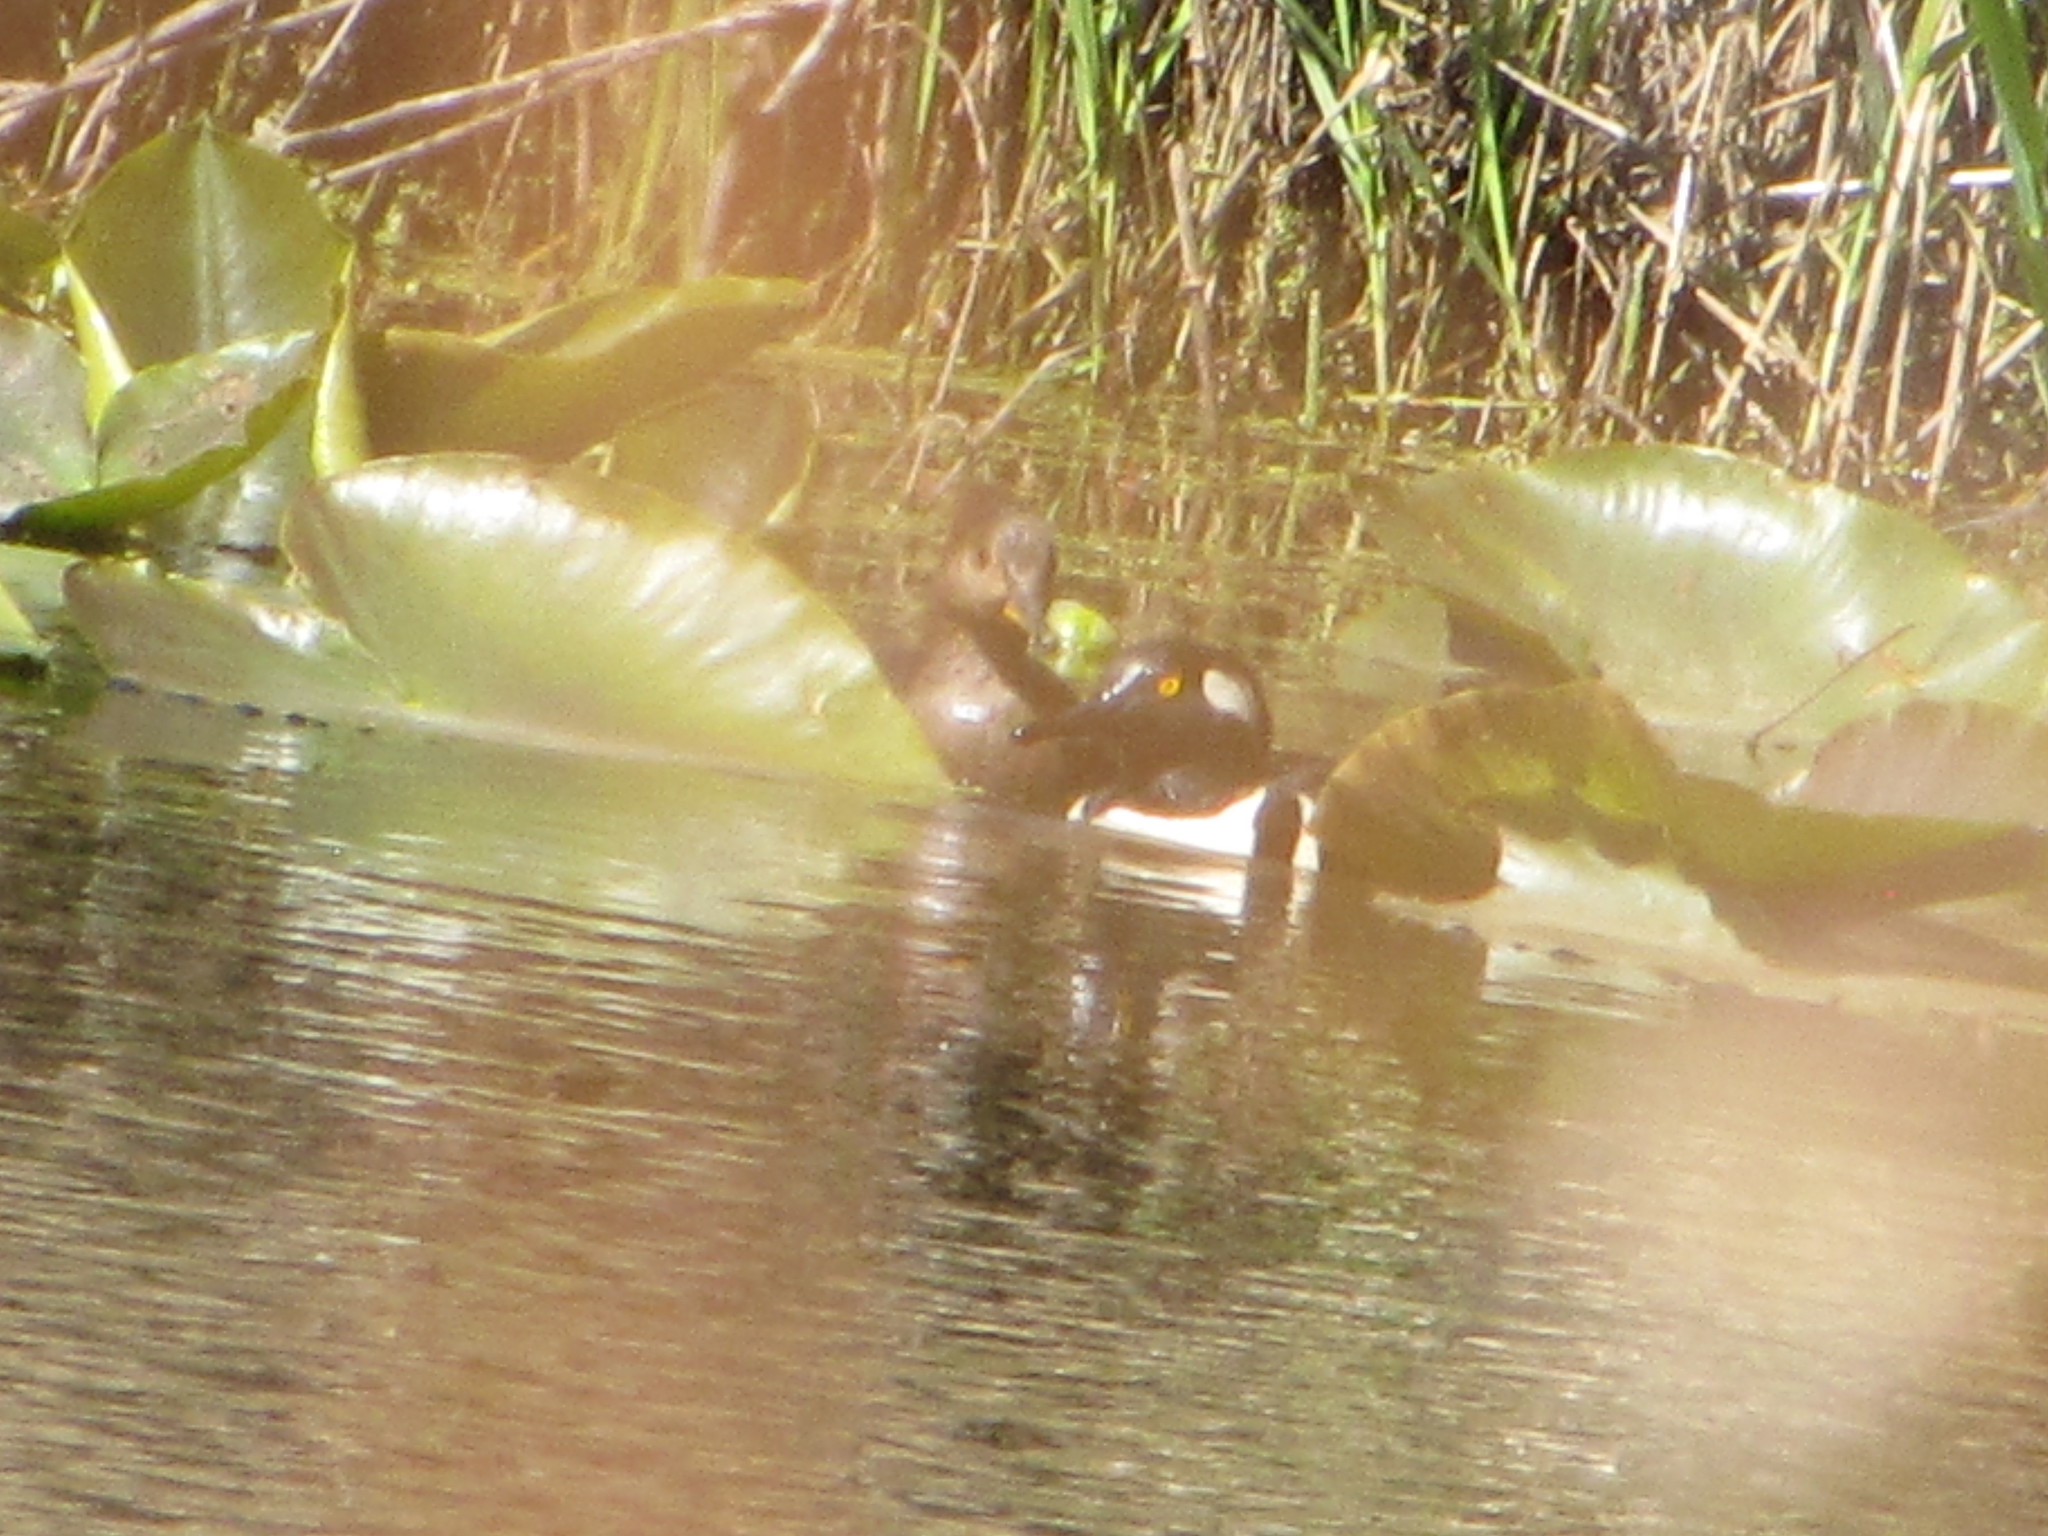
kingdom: Animalia
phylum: Chordata
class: Aves
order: Anseriformes
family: Anatidae
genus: Lophodytes
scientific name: Lophodytes cucullatus
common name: Hooded merganser
